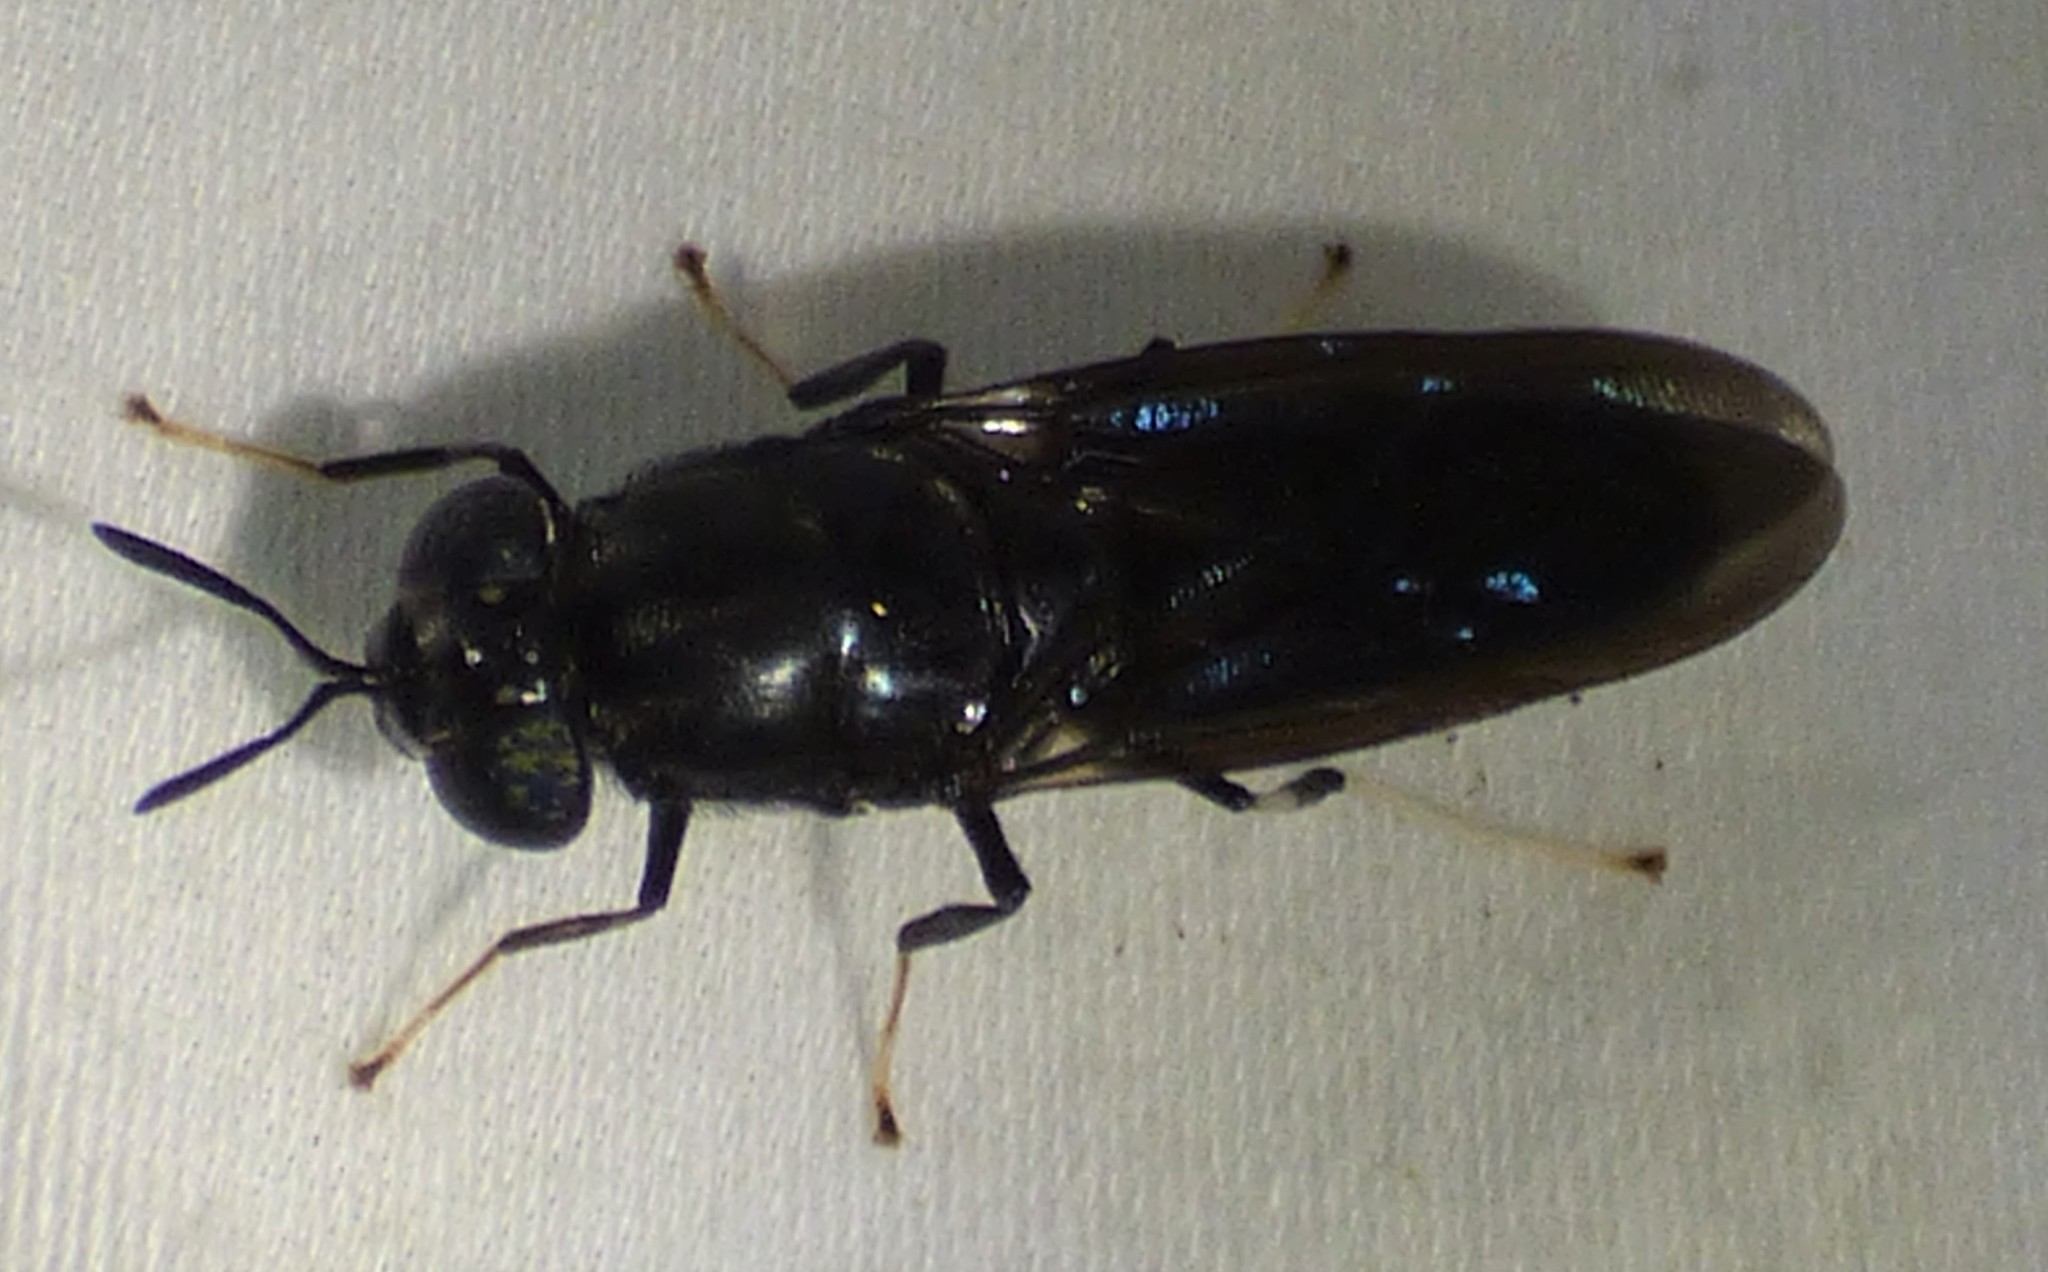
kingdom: Animalia
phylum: Arthropoda
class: Insecta
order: Diptera
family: Stratiomyidae
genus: Hermetia
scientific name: Hermetia illucens
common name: Black soldier fly
